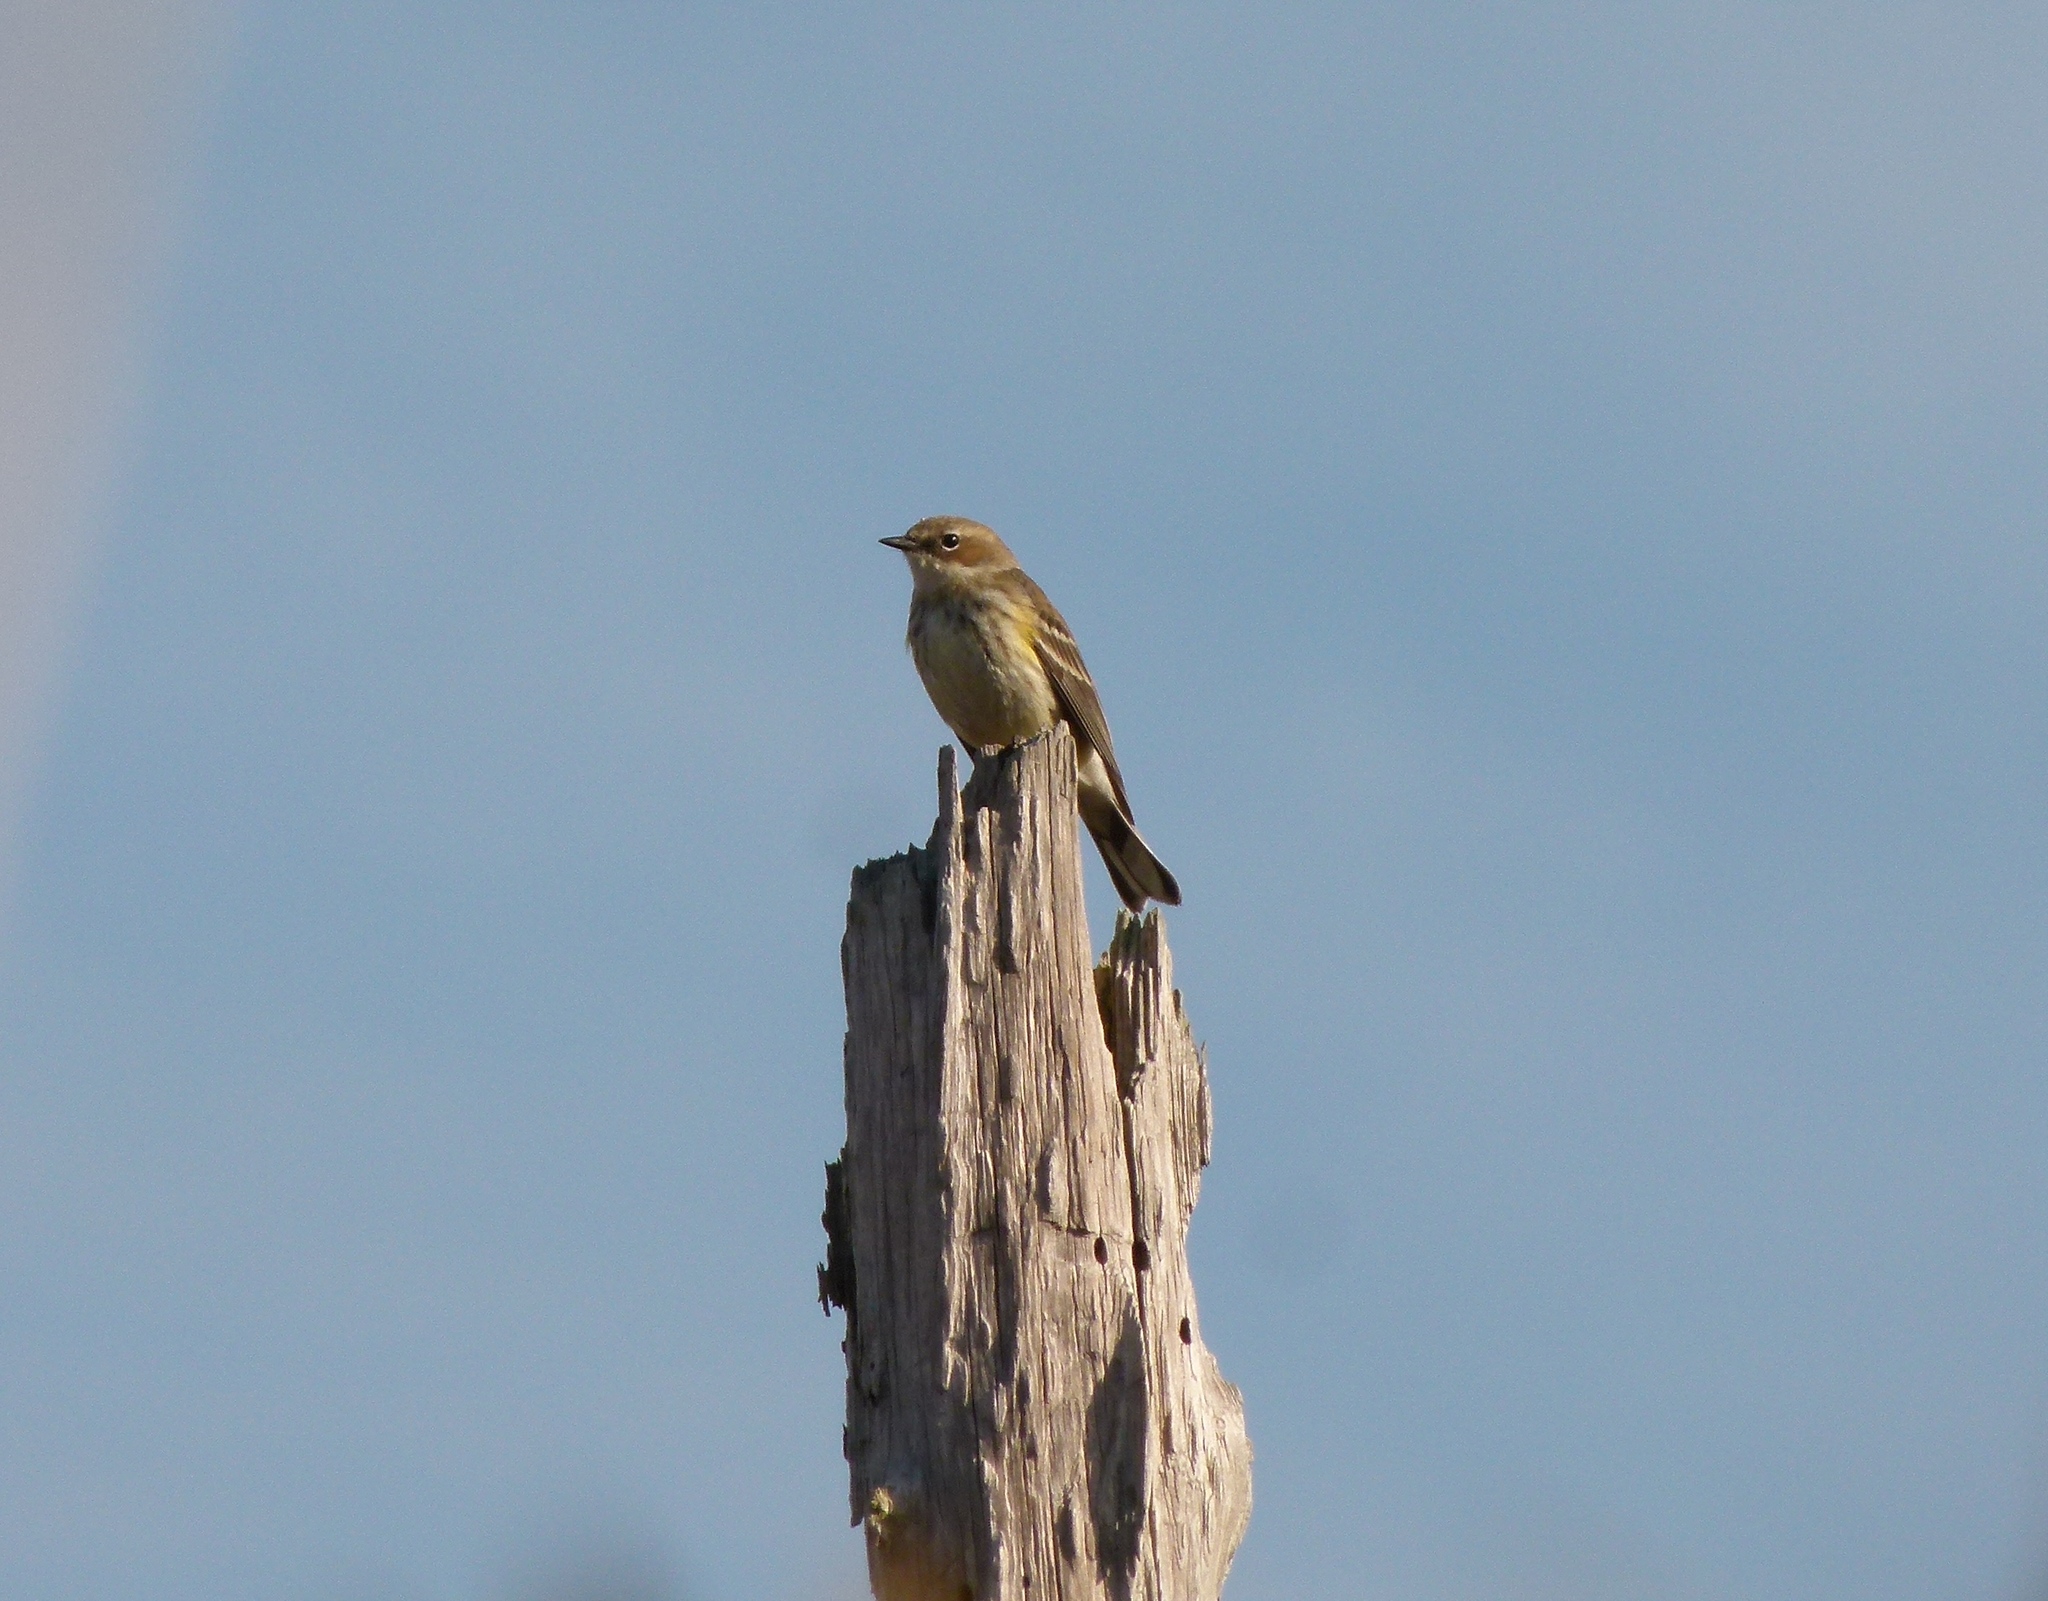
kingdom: Animalia
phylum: Chordata
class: Aves
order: Passeriformes
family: Parulidae
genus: Setophaga
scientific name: Setophaga coronata
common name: Myrtle warbler
